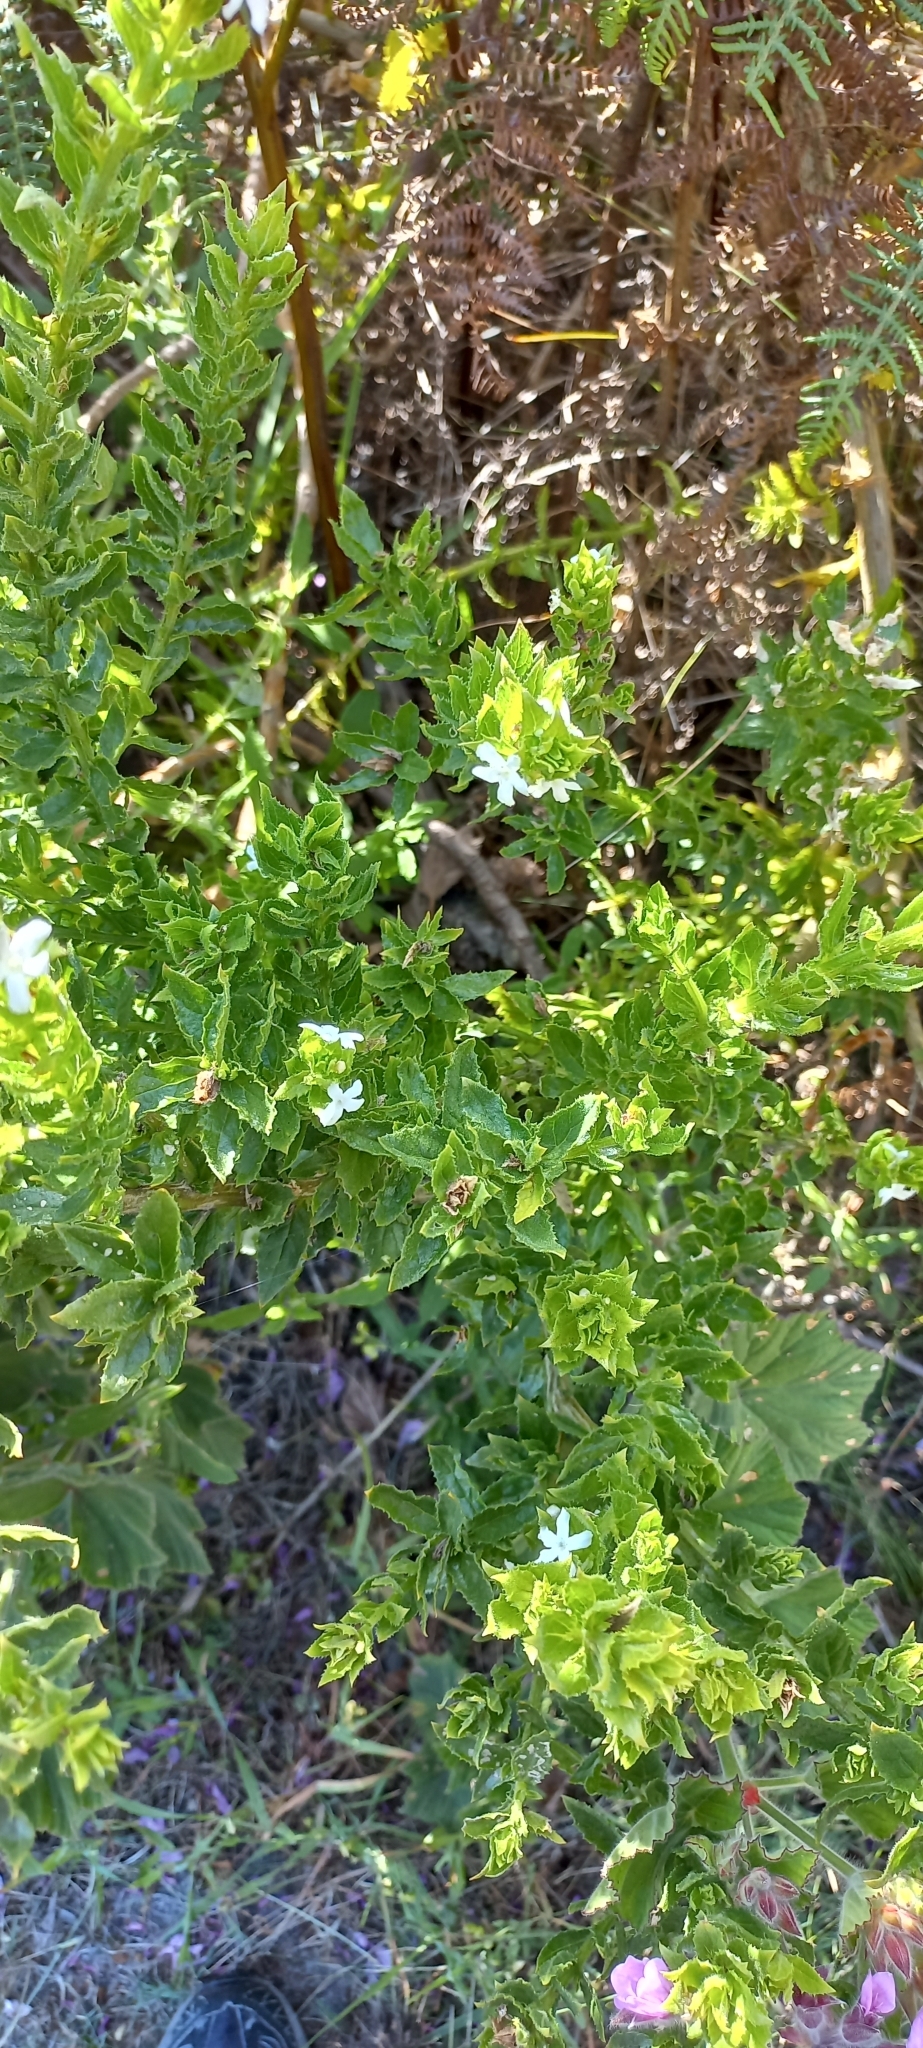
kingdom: Plantae
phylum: Tracheophyta
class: Magnoliopsida
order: Lamiales
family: Scrophulariaceae
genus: Oftia
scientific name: Oftia africana
